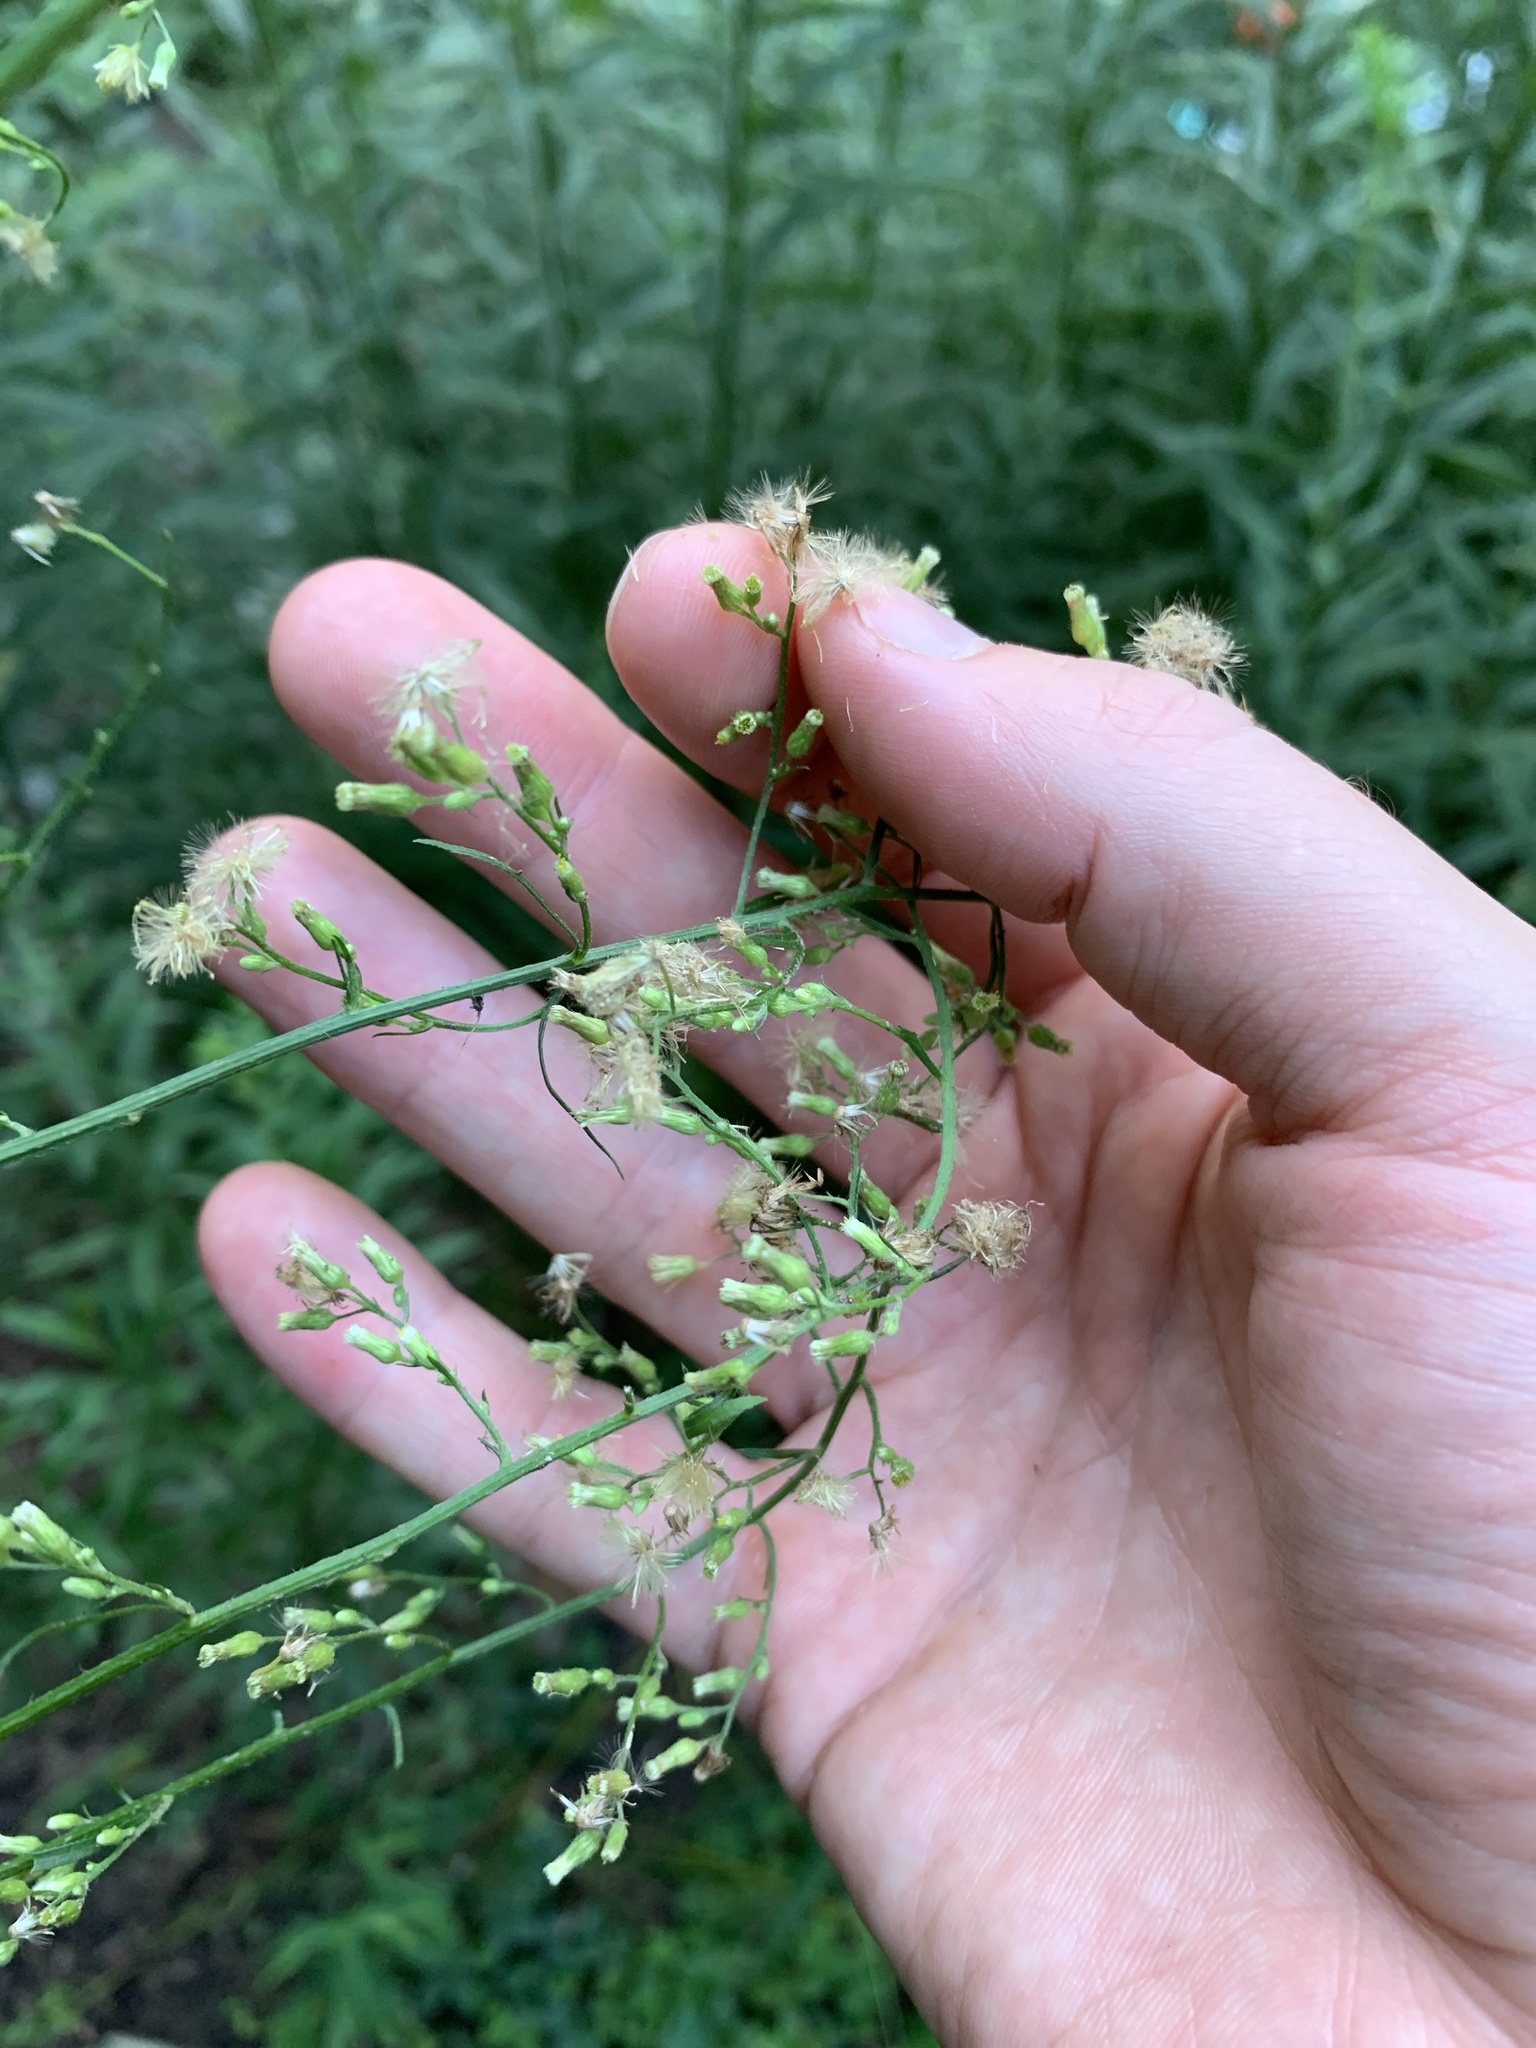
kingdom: Plantae
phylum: Tracheophyta
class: Magnoliopsida
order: Asterales
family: Asteraceae
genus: Erigeron
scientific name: Erigeron canadensis
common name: Canadian fleabane
